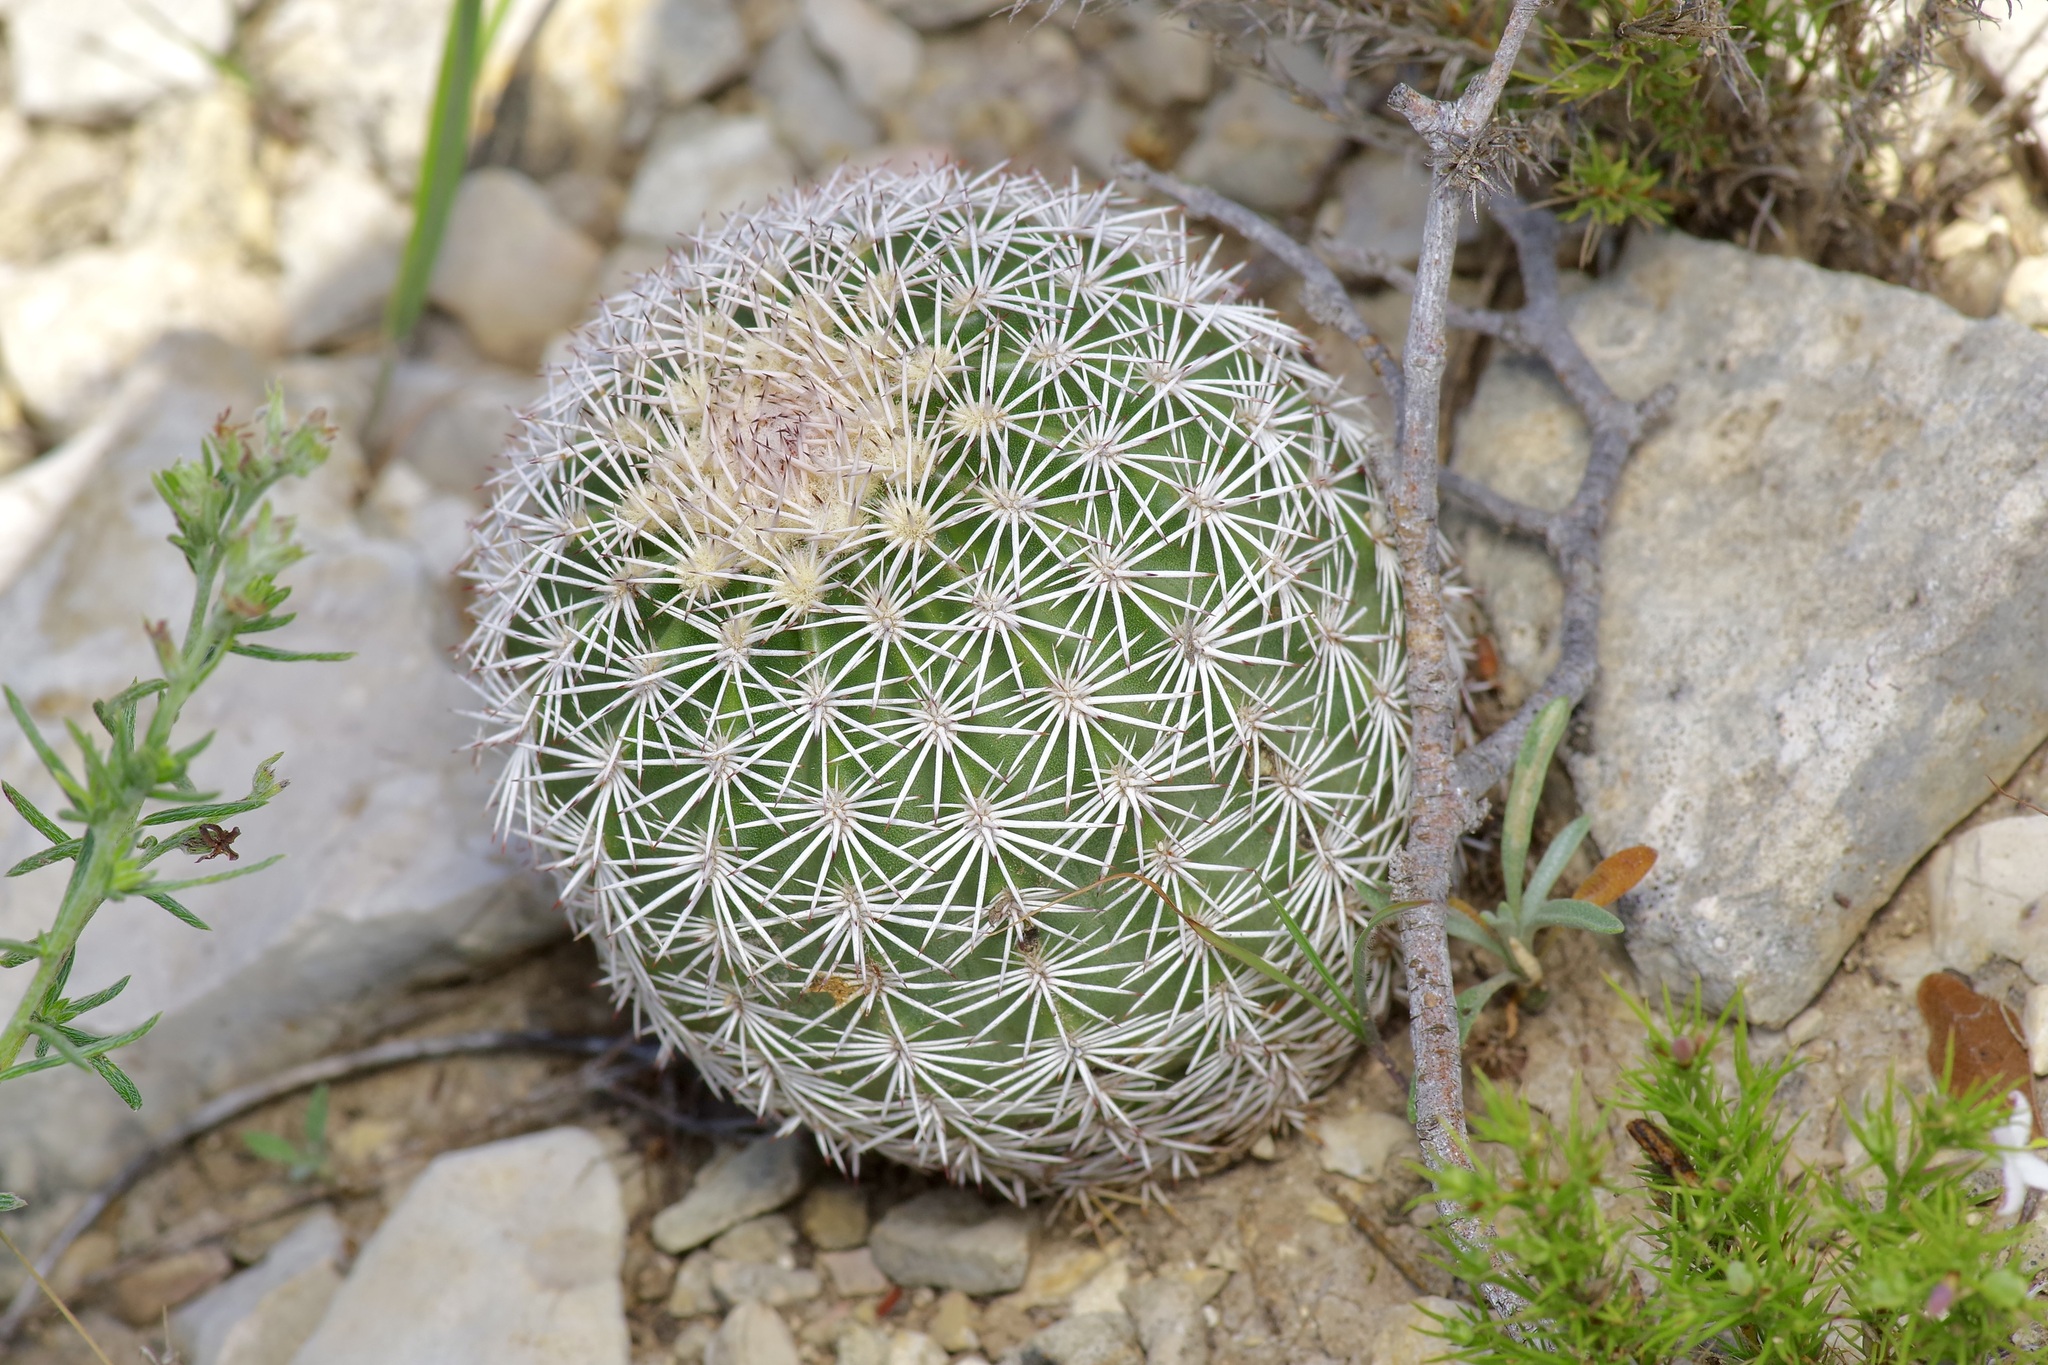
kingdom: Plantae
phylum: Tracheophyta
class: Magnoliopsida
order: Caryophyllales
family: Cactaceae
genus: Echinocereus
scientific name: Echinocereus pectinatus
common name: Rainbow cactus
